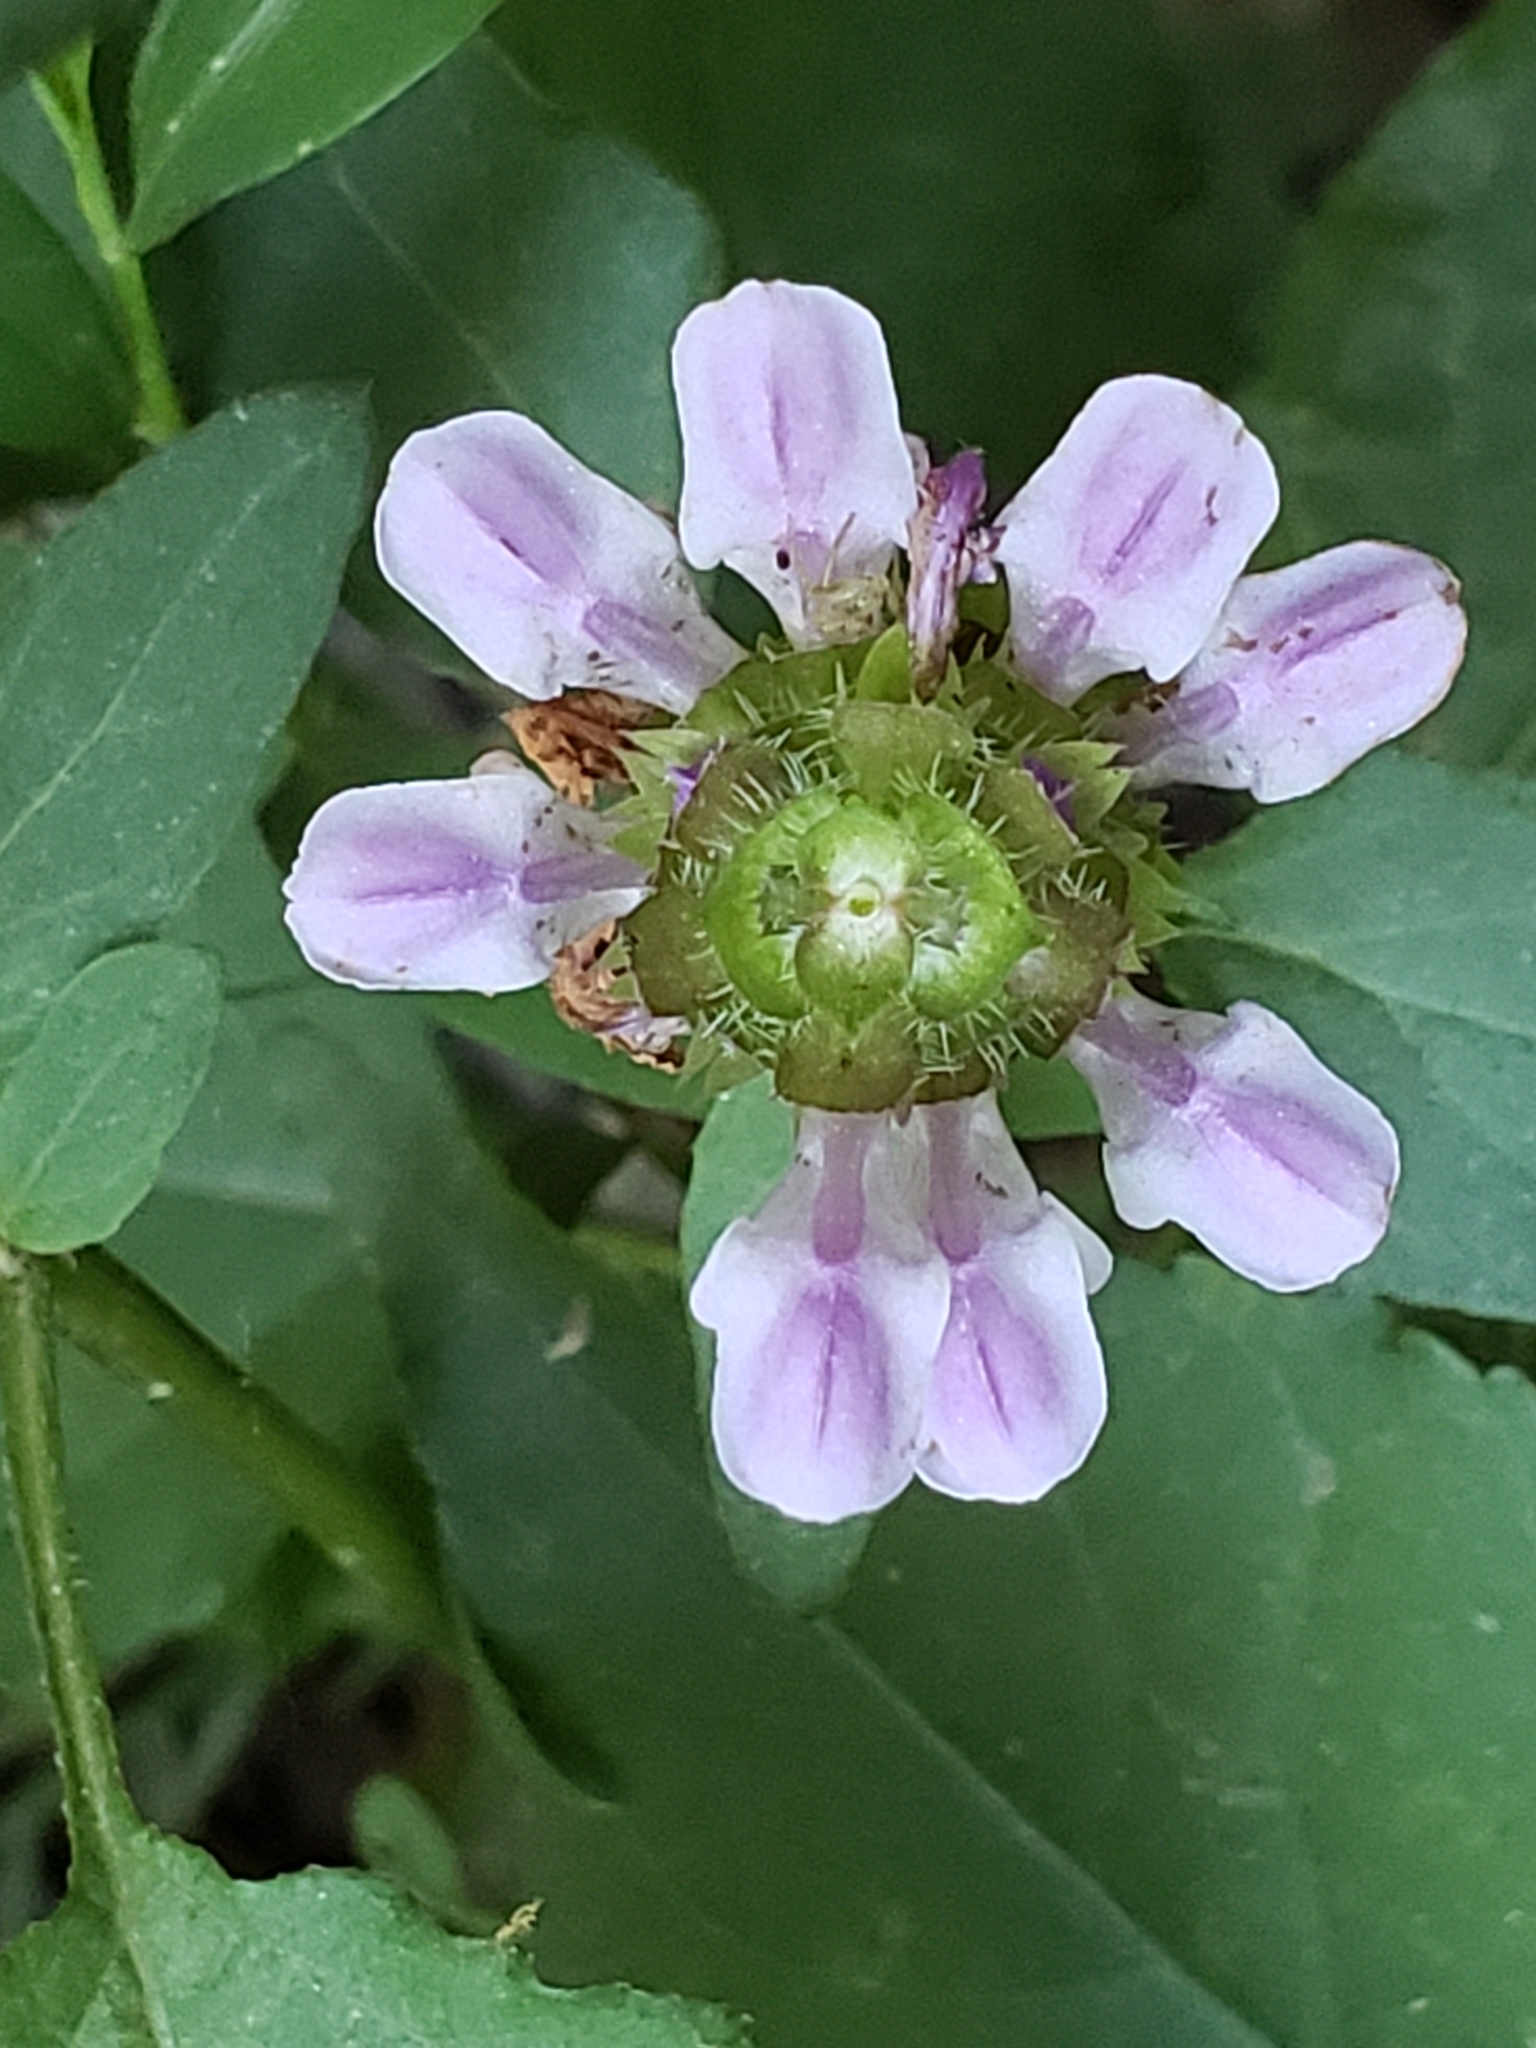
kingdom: Plantae
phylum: Tracheophyta
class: Magnoliopsida
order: Lamiales
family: Lamiaceae
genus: Prunella
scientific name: Prunella vulgaris
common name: Heal-all
